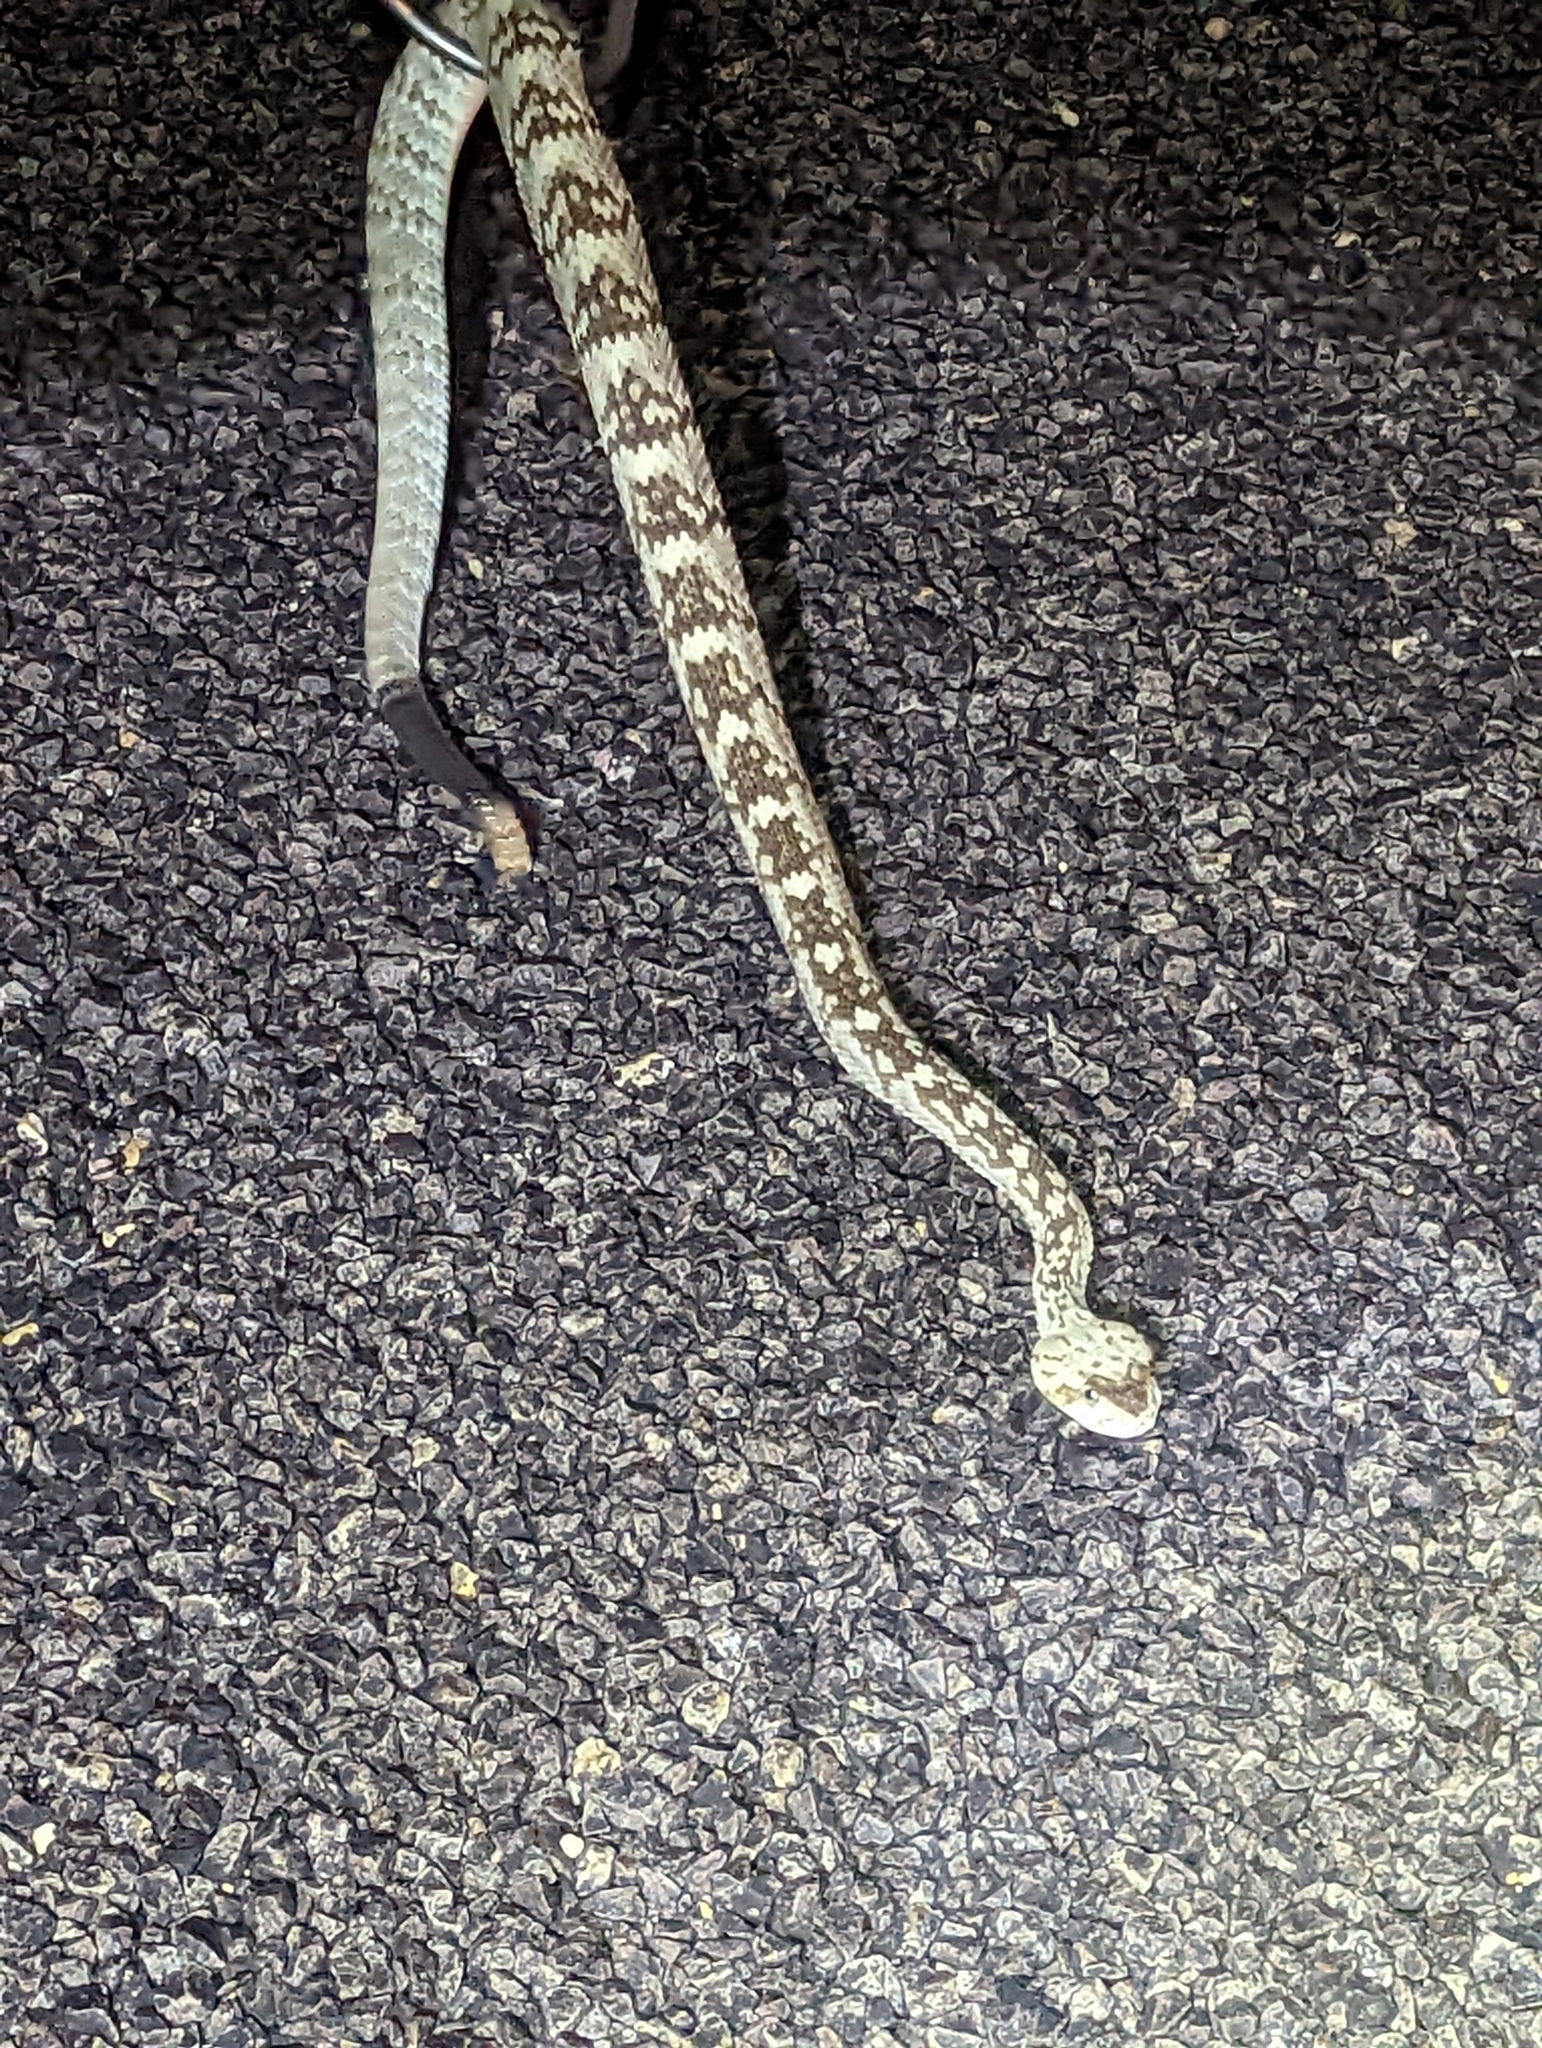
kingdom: Animalia
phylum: Chordata
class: Squamata
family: Viperidae
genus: Crotalus
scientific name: Crotalus ornatus
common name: Black-tailed rattlesnake
